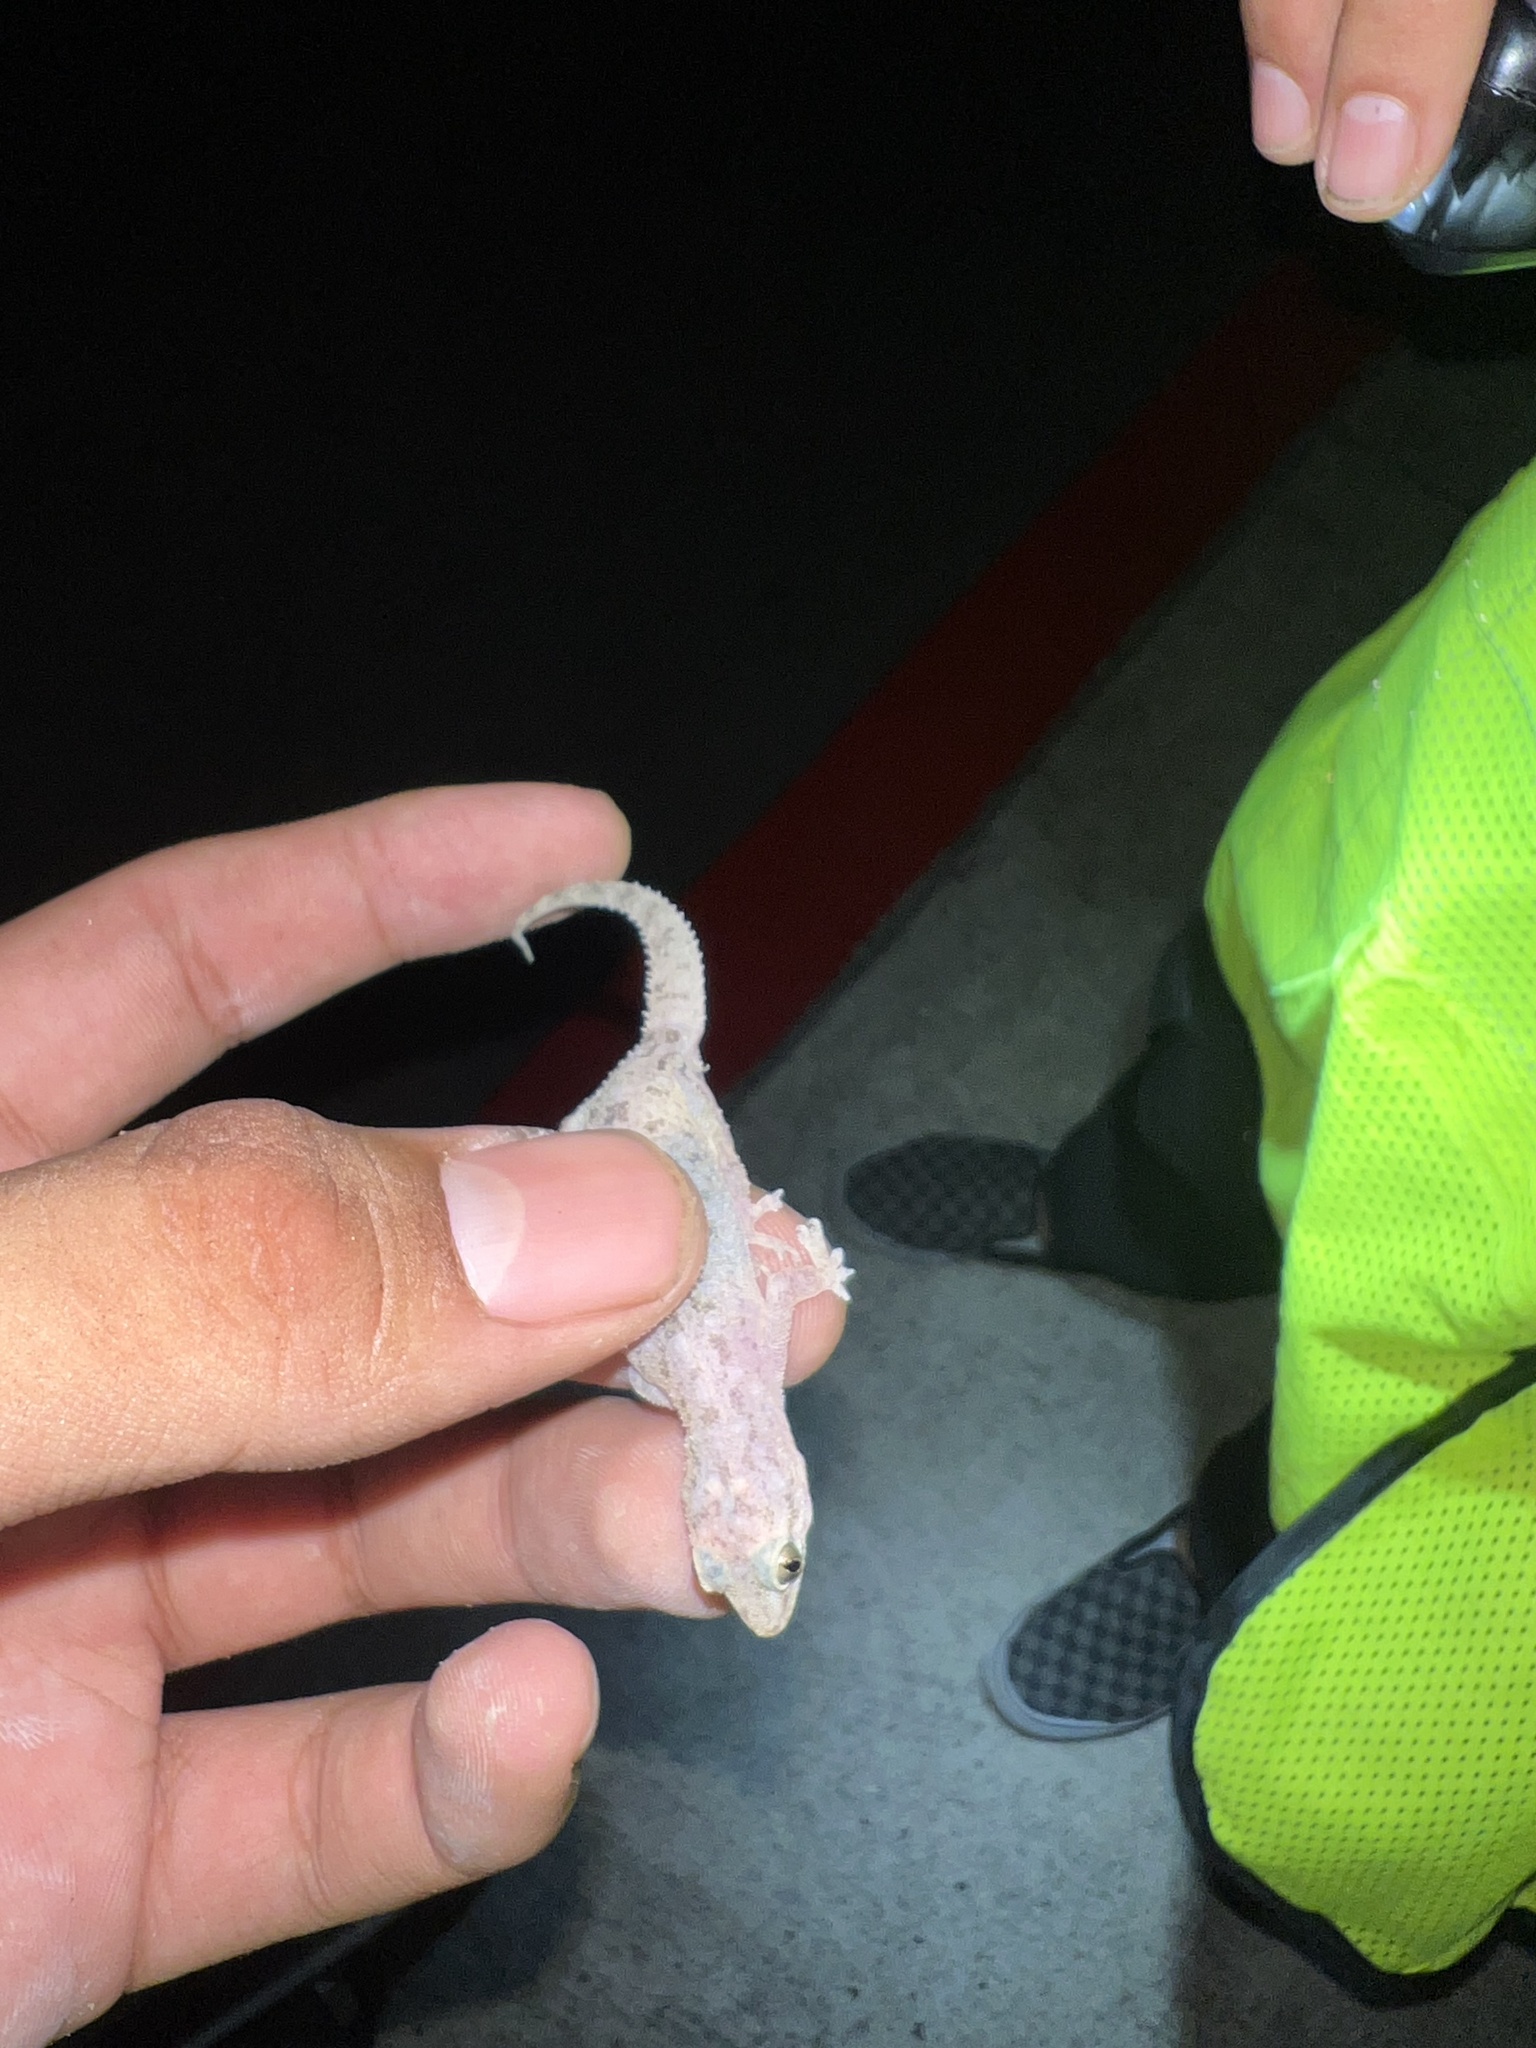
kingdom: Animalia
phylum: Chordata
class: Squamata
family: Gekkonidae
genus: Hemidactylus
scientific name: Hemidactylus parvimaculatus
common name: Spotted house gecko
